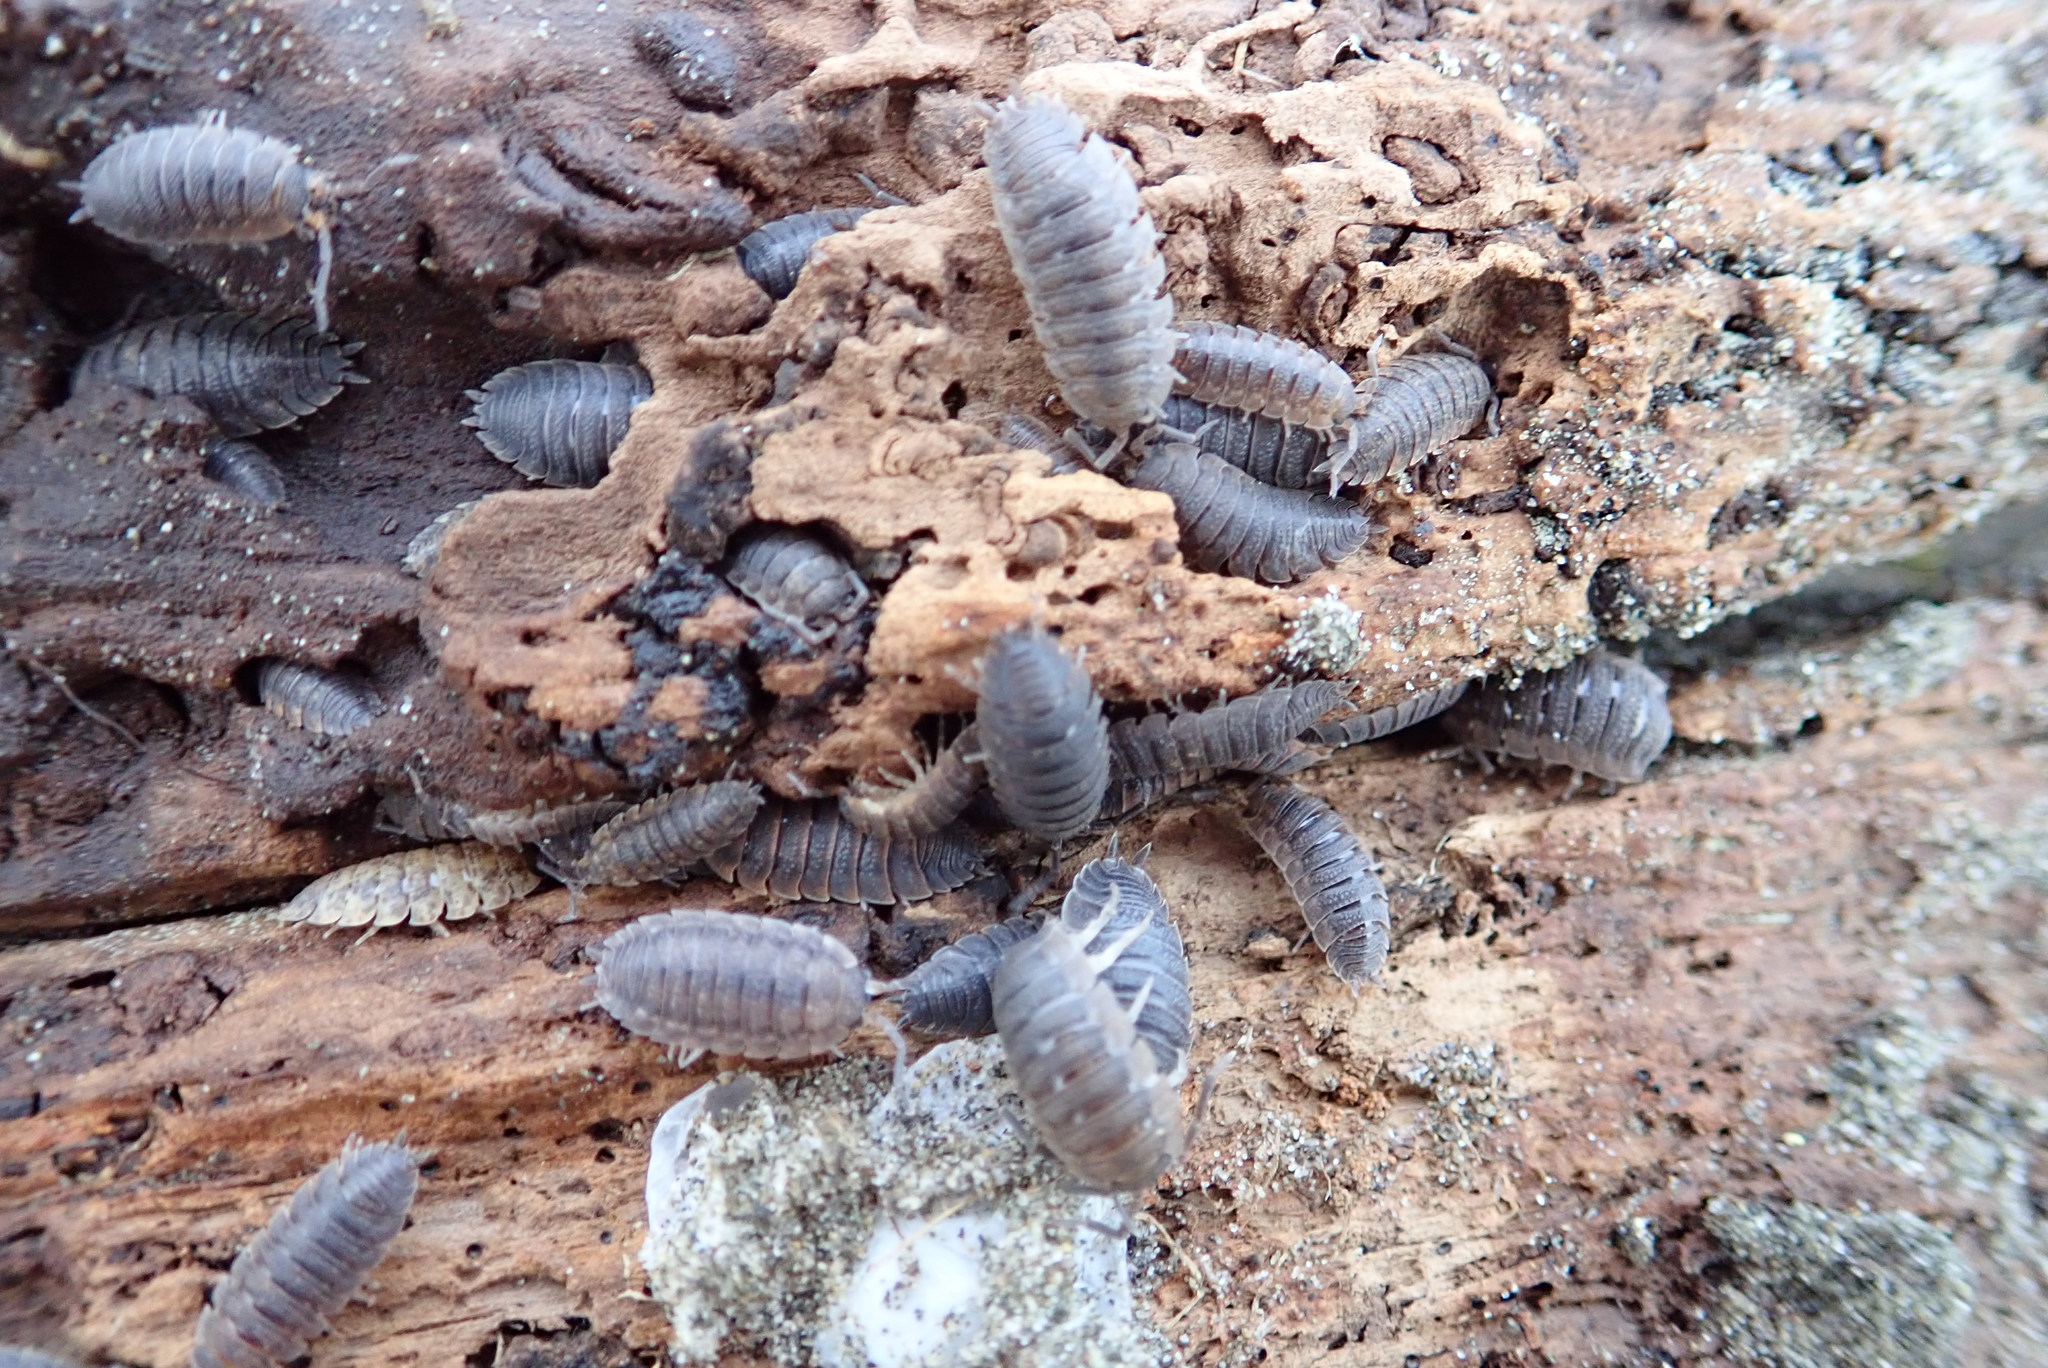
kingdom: Animalia
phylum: Arthropoda
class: Malacostraca
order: Isopoda
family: Porcellionidae
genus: Porcellio
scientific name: Porcellio scaber
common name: Common rough woodlouse
